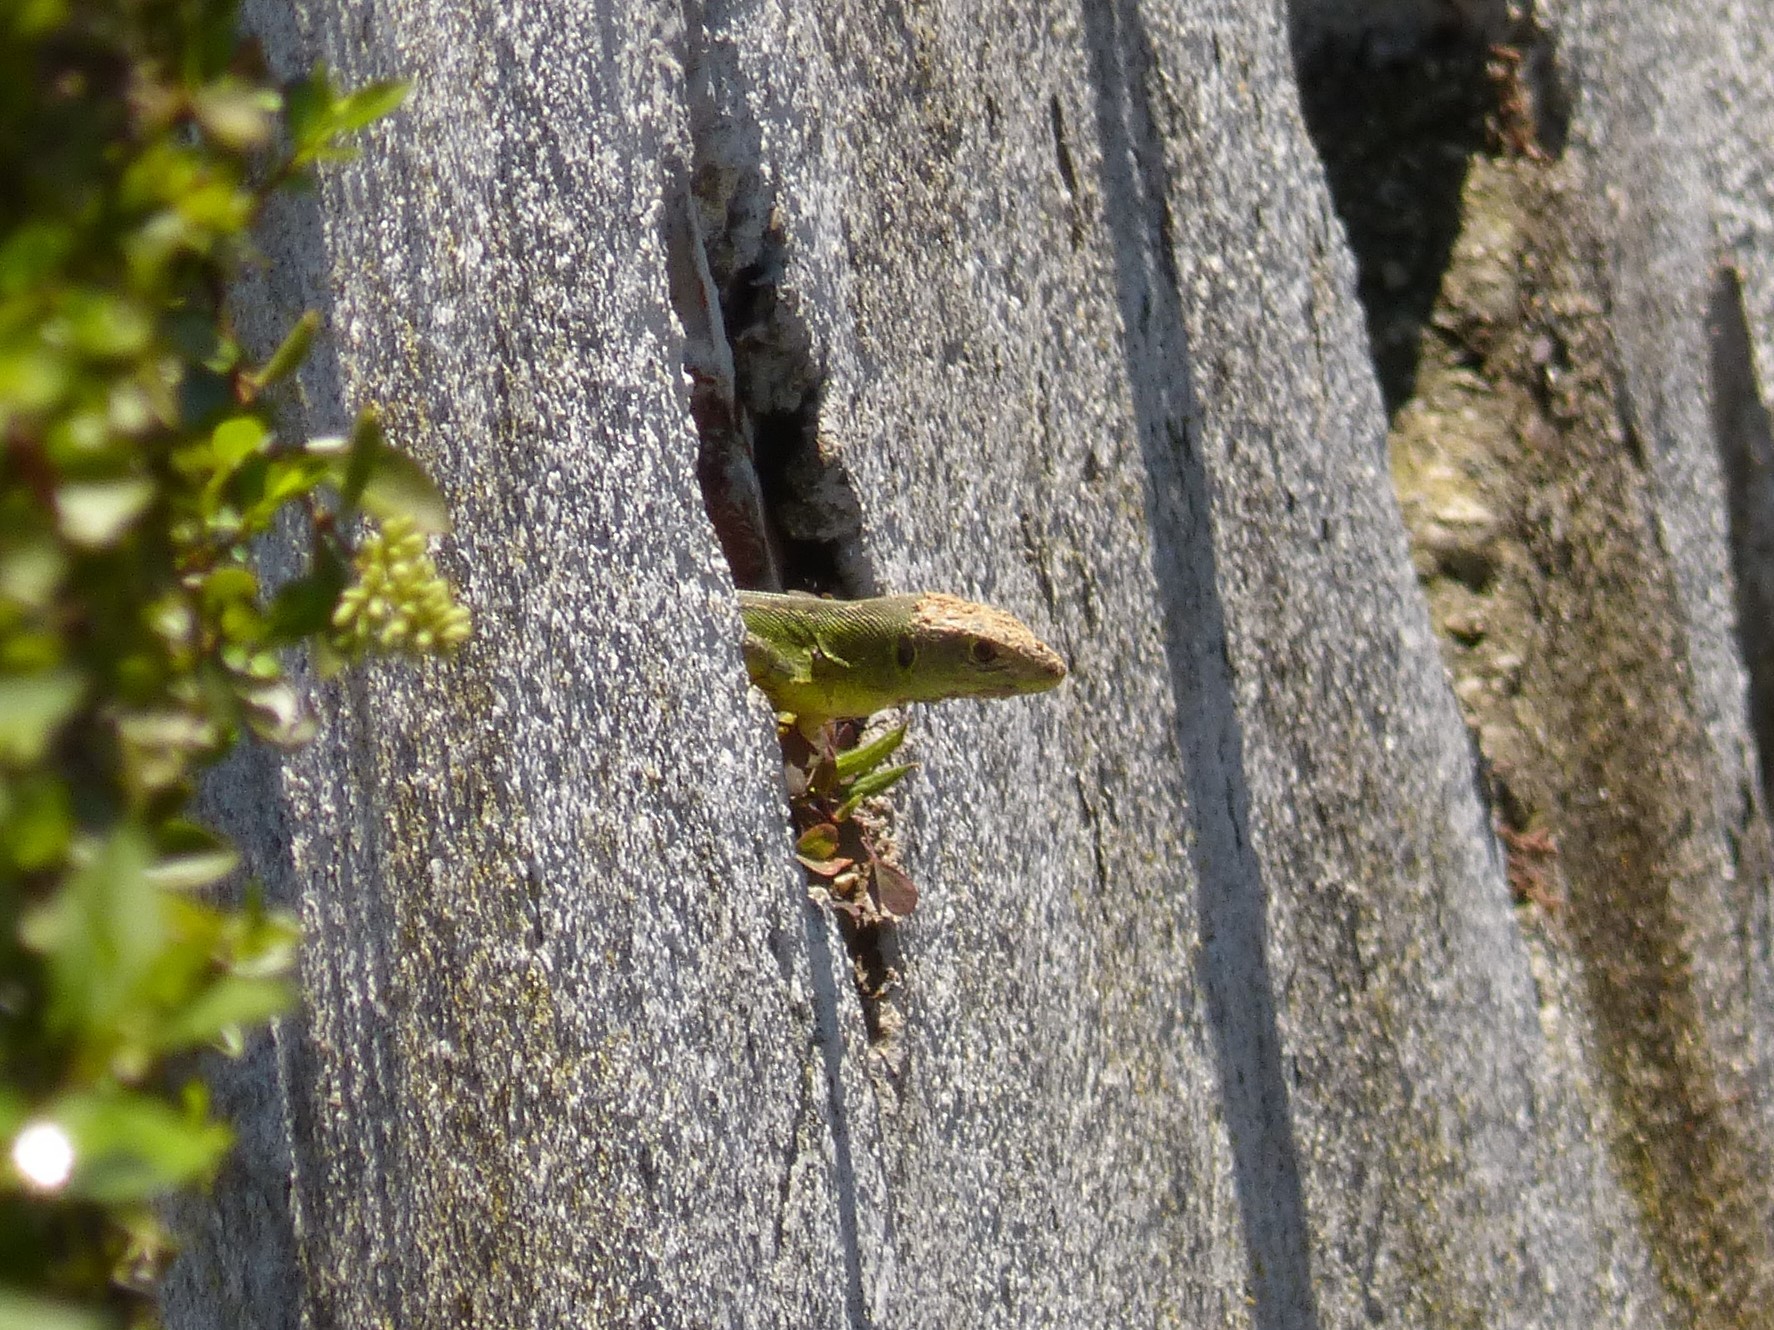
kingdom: Animalia
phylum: Chordata
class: Squamata
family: Lacertidae
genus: Lacerta
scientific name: Lacerta bilineata
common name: Western green lizard
